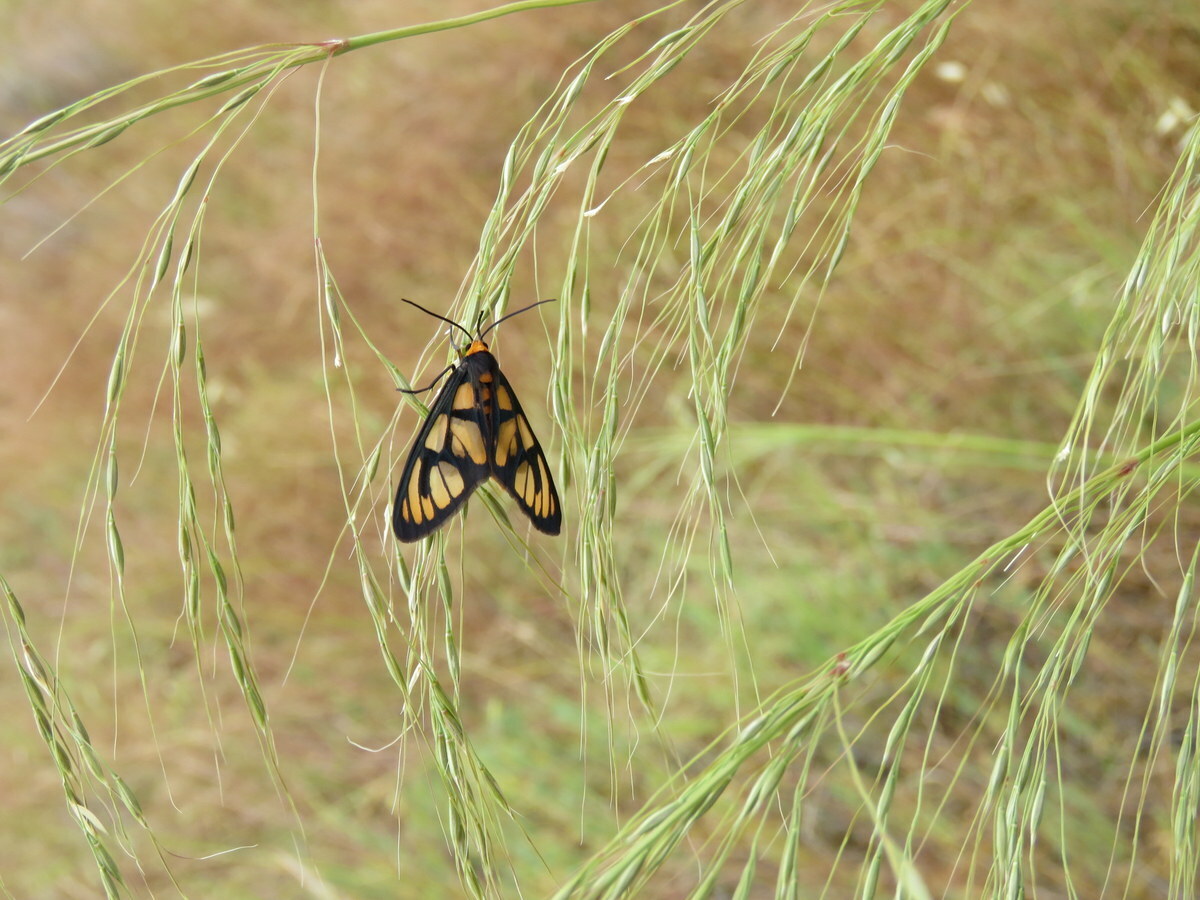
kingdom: Animalia
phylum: Arthropoda
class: Insecta
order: Lepidoptera
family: Erebidae
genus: Amata
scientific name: Amata aperta
